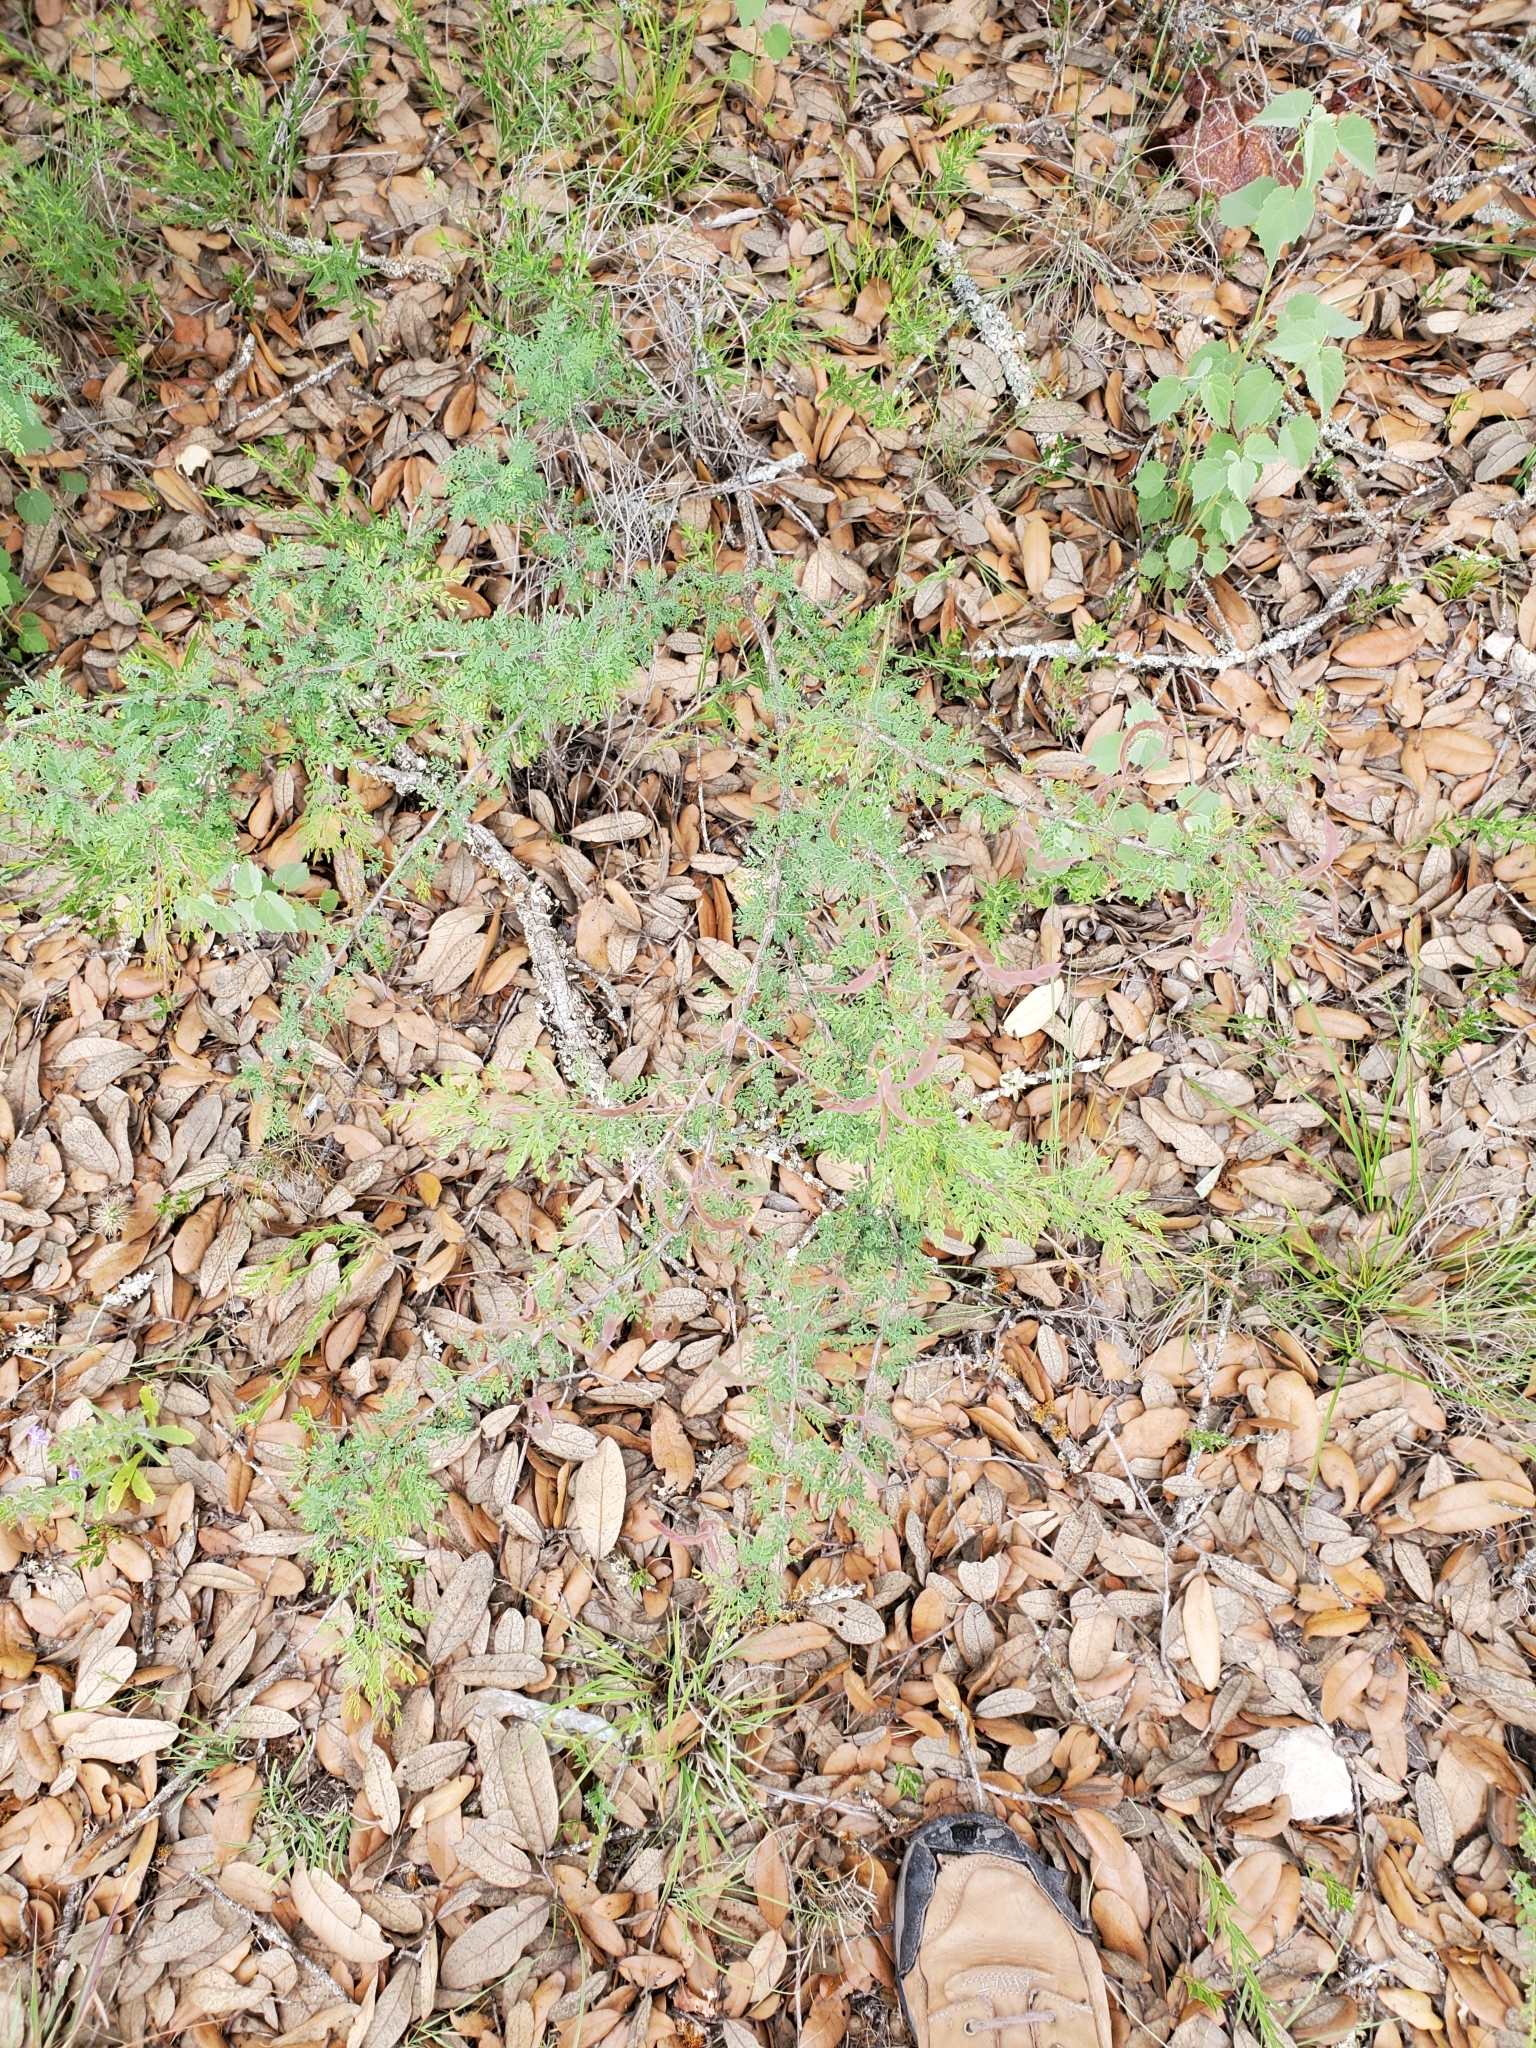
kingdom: Plantae
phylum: Tracheophyta
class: Magnoliopsida
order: Fabales
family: Fabaceae
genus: Mimosa
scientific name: Mimosa texana
